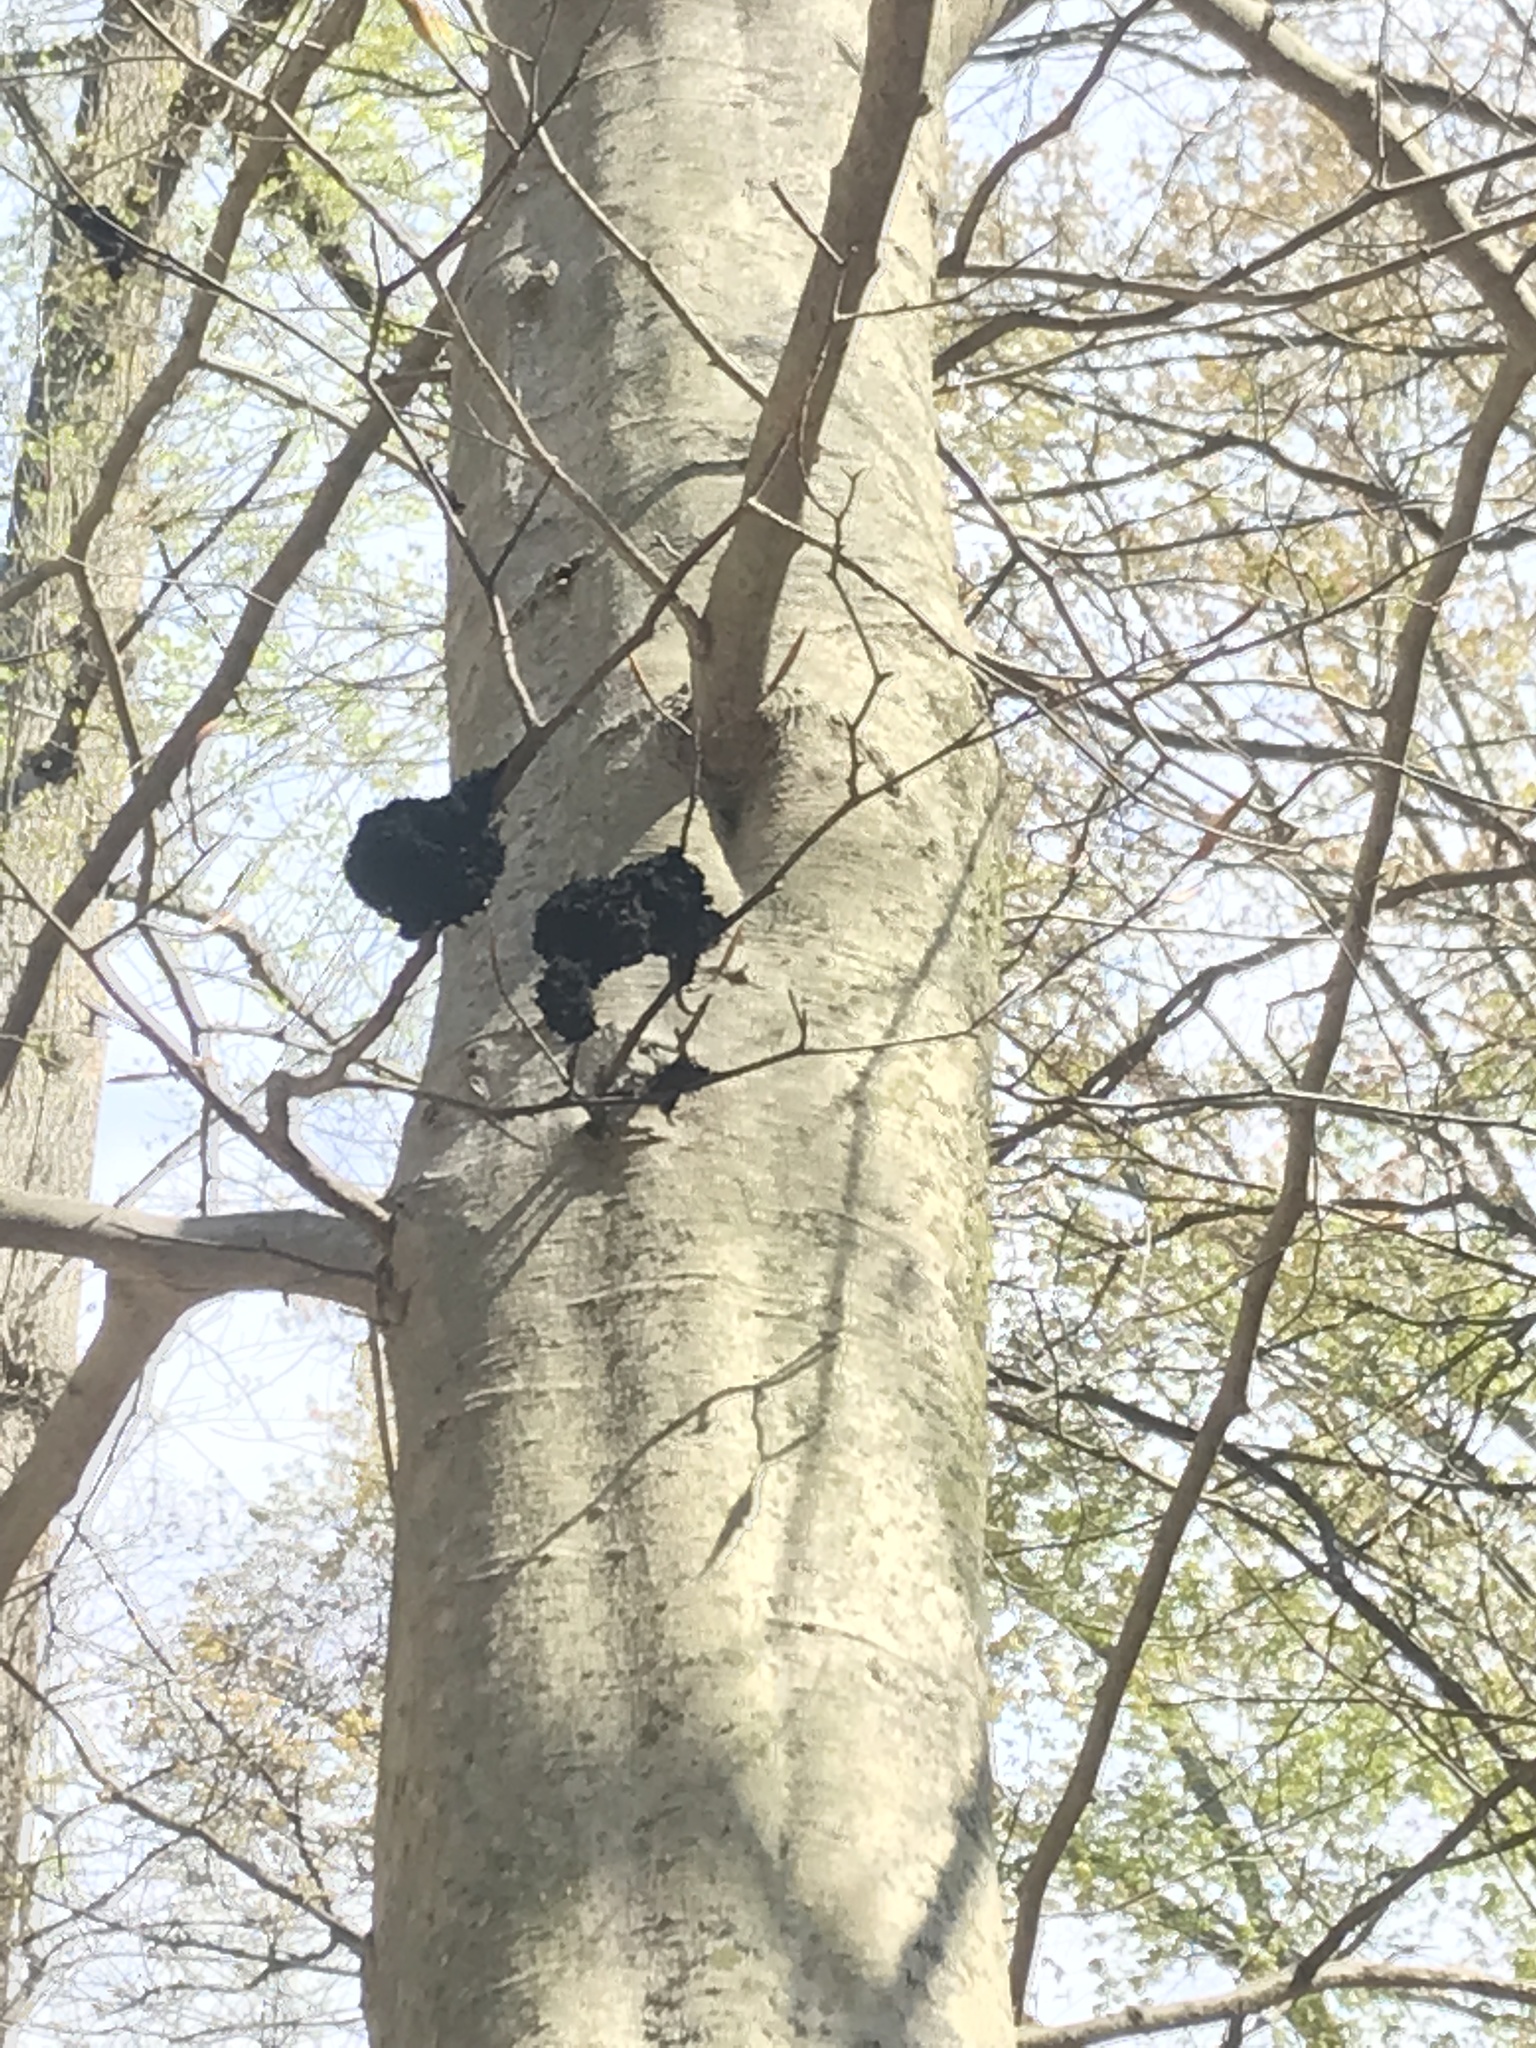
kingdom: Fungi
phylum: Ascomycota
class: Dothideomycetes
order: Capnodiales
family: Capnodiaceae
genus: Scorias
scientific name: Scorias spongiosa
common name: Black sooty mold
